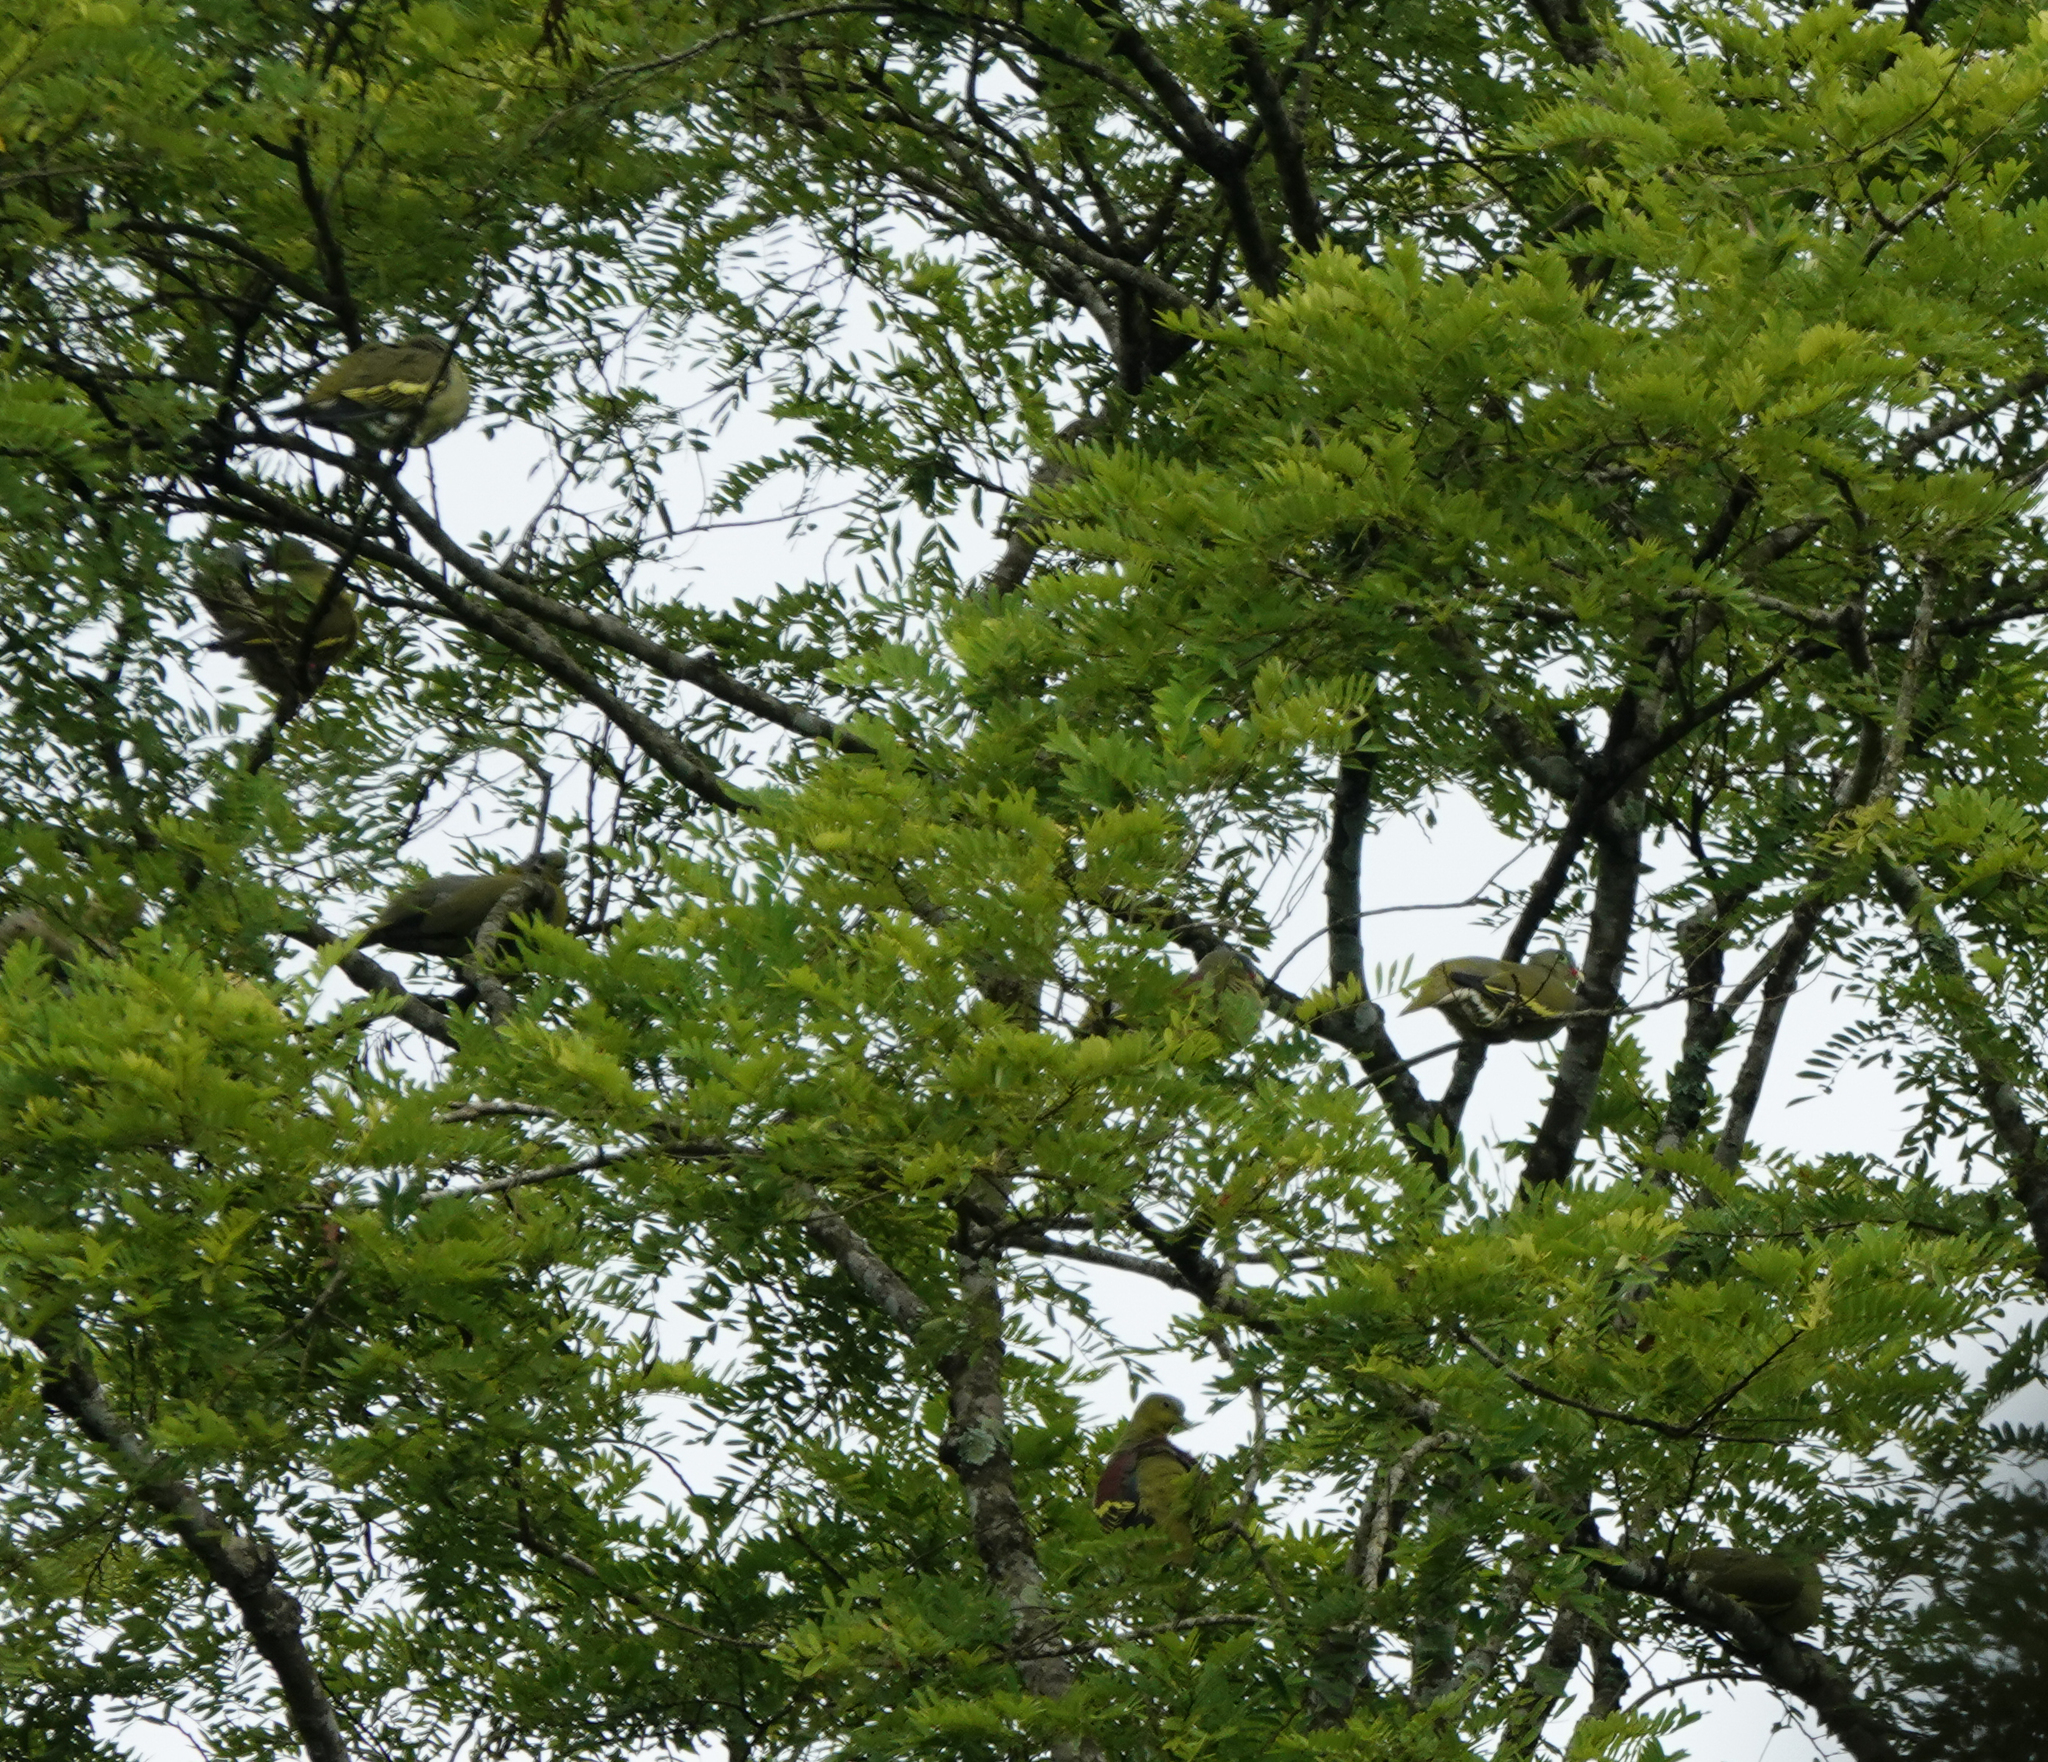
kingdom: Animalia
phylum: Chordata
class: Aves
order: Columbiformes
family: Columbidae
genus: Treron
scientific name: Treron curvirostra
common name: Thick-billed green pigeon
